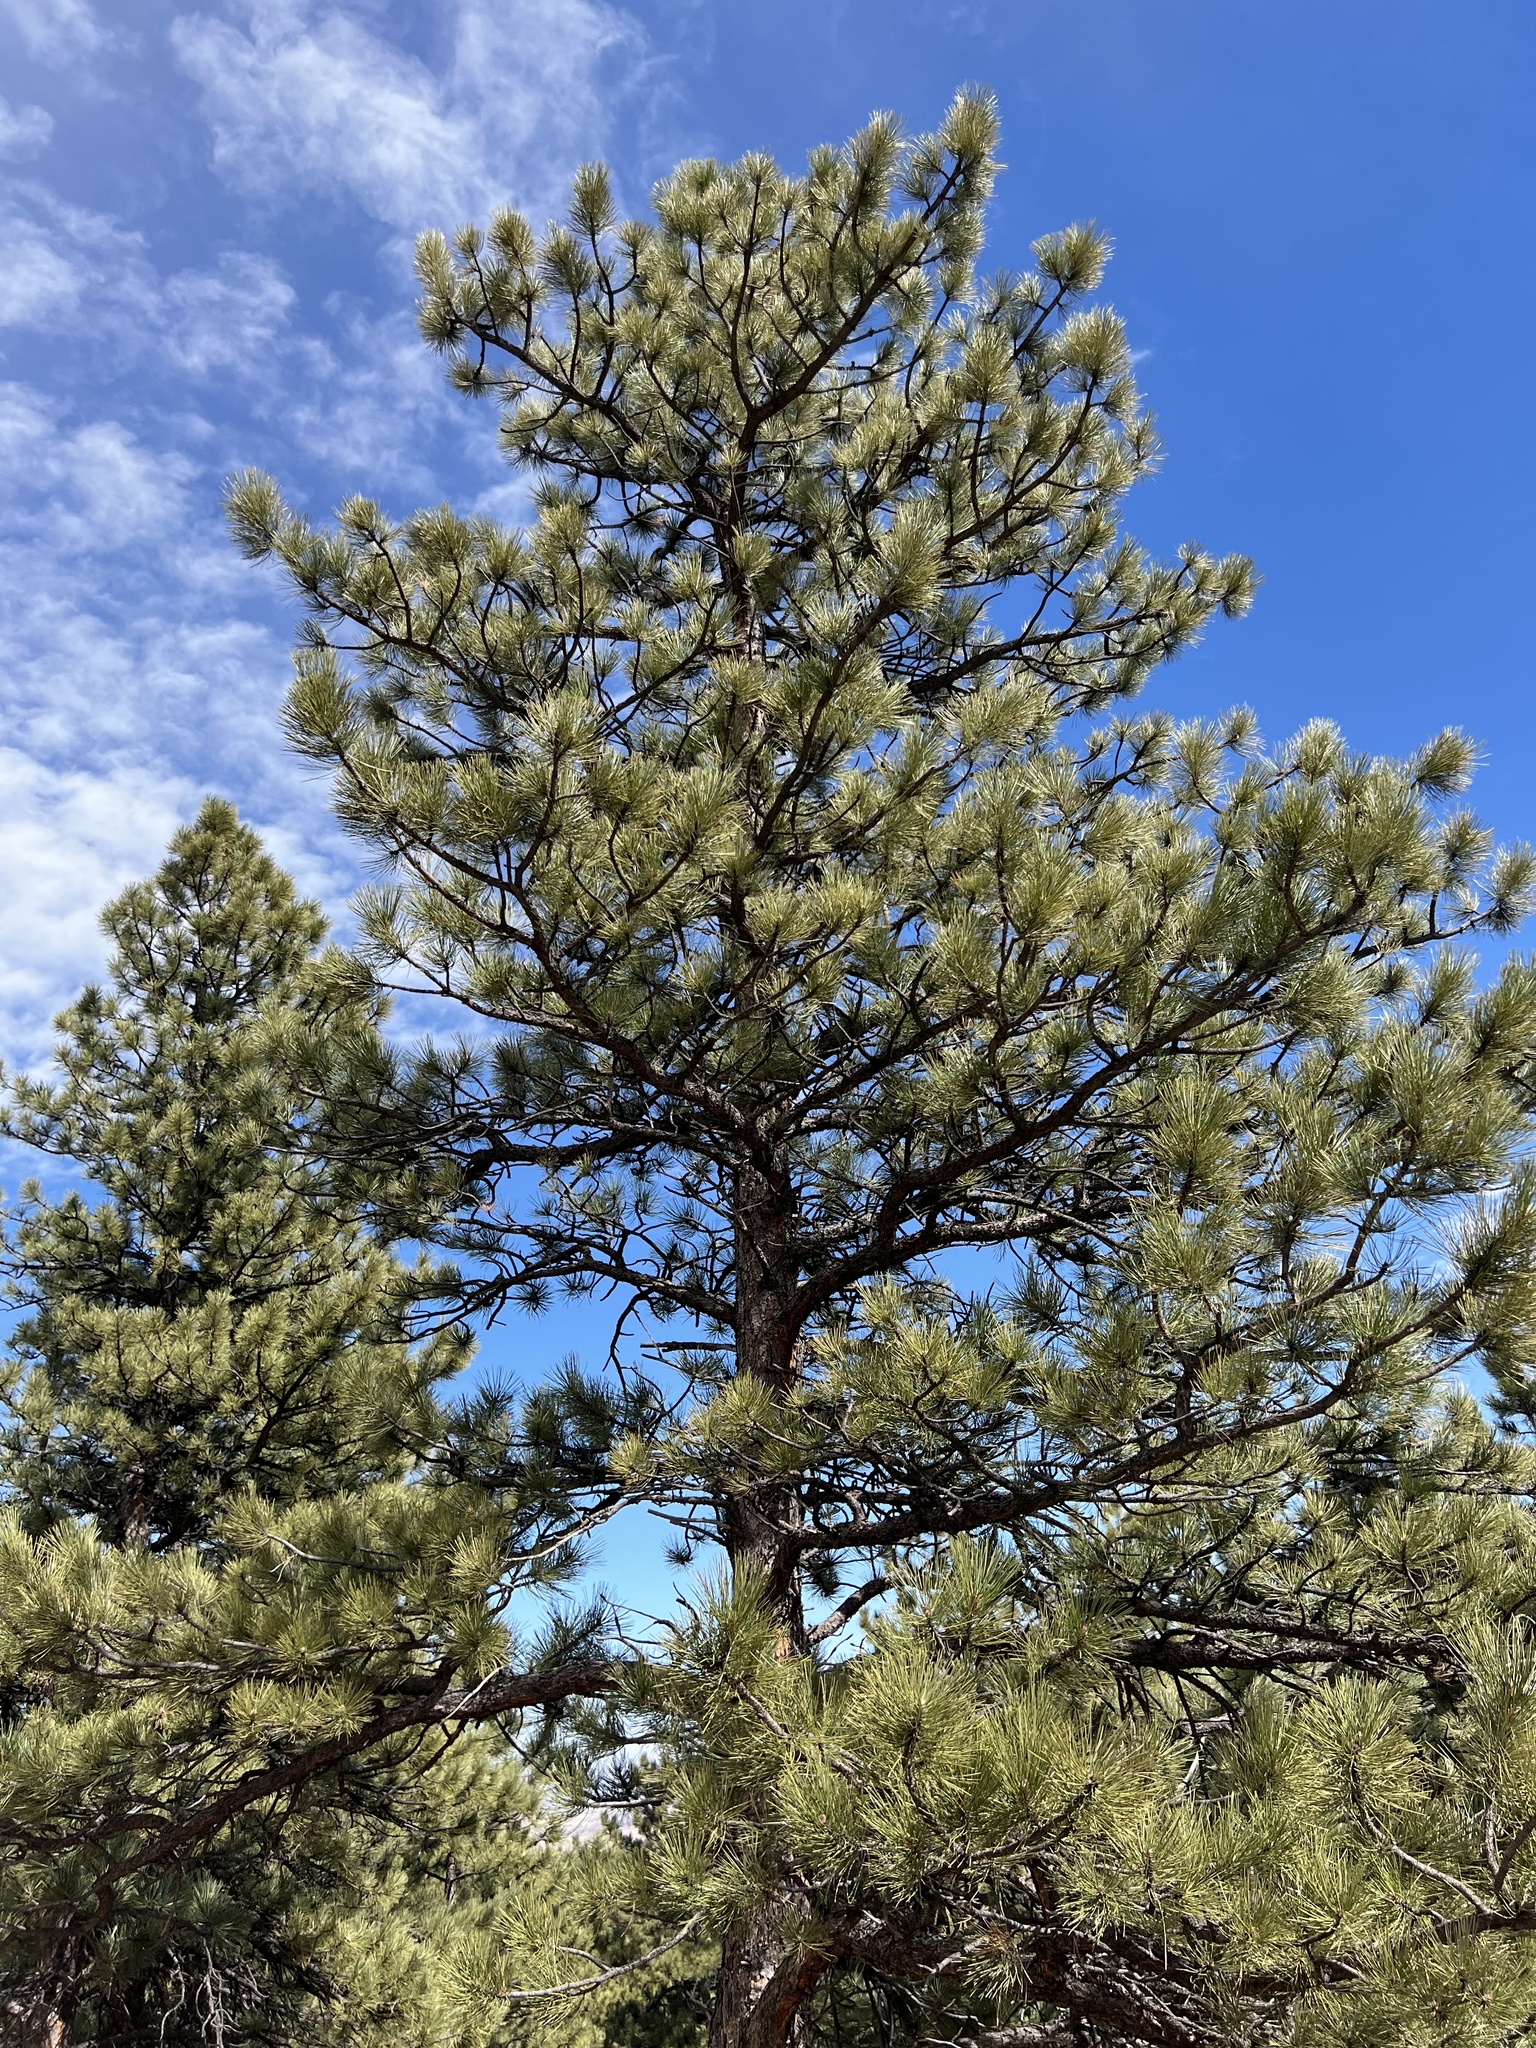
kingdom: Plantae
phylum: Tracheophyta
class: Pinopsida
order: Pinales
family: Pinaceae
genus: Pinus
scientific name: Pinus ponderosa
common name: Western yellow-pine
